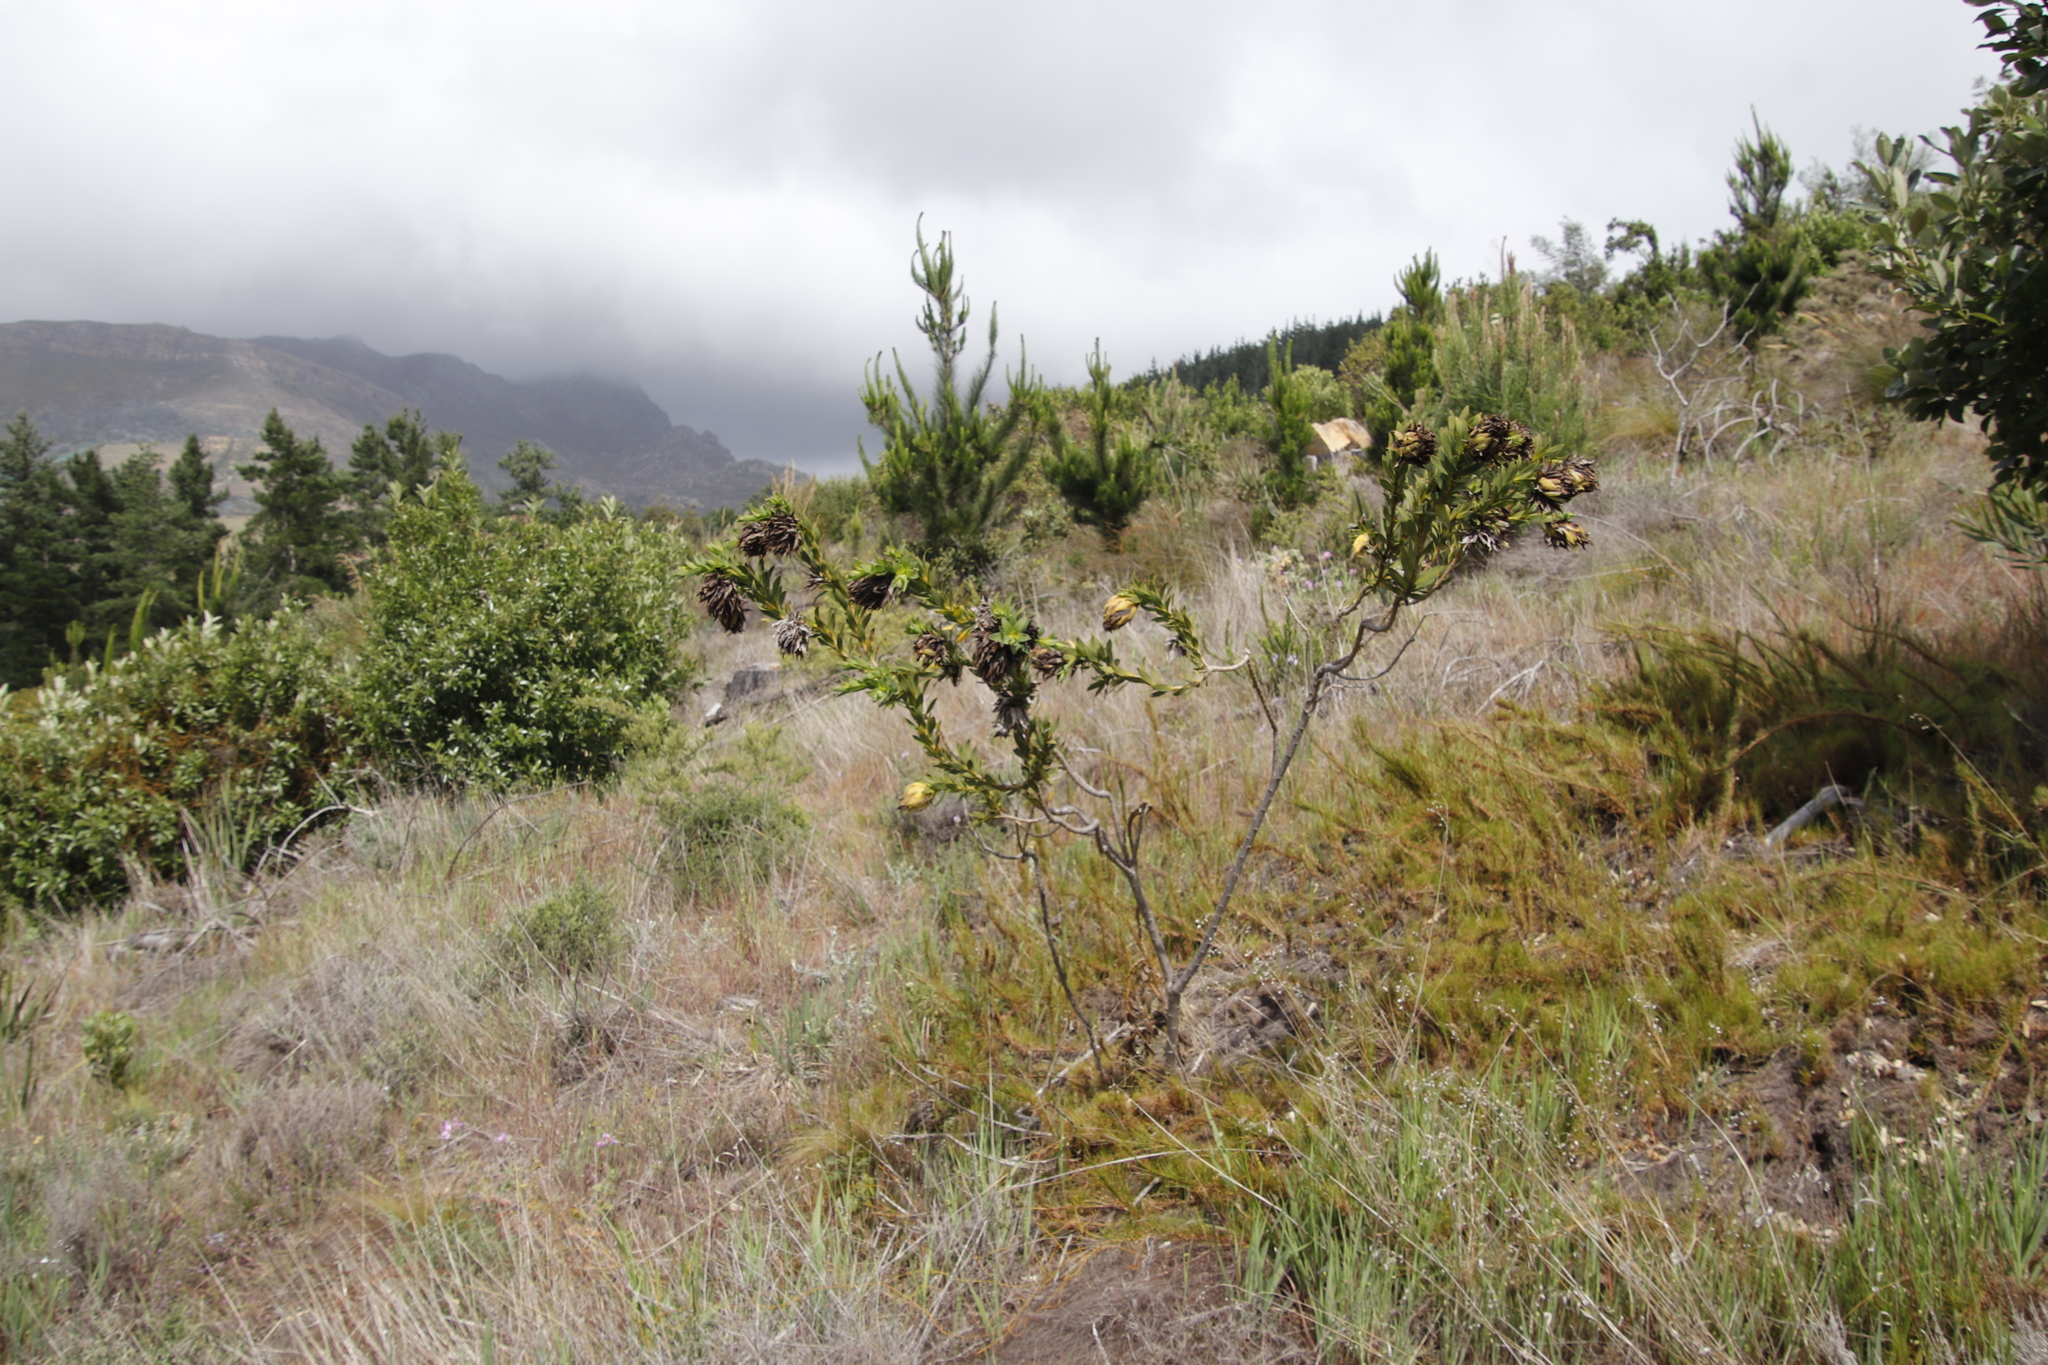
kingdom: Plantae
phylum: Tracheophyta
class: Magnoliopsida
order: Fabales
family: Fabaceae
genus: Liparia
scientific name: Liparia splendens
